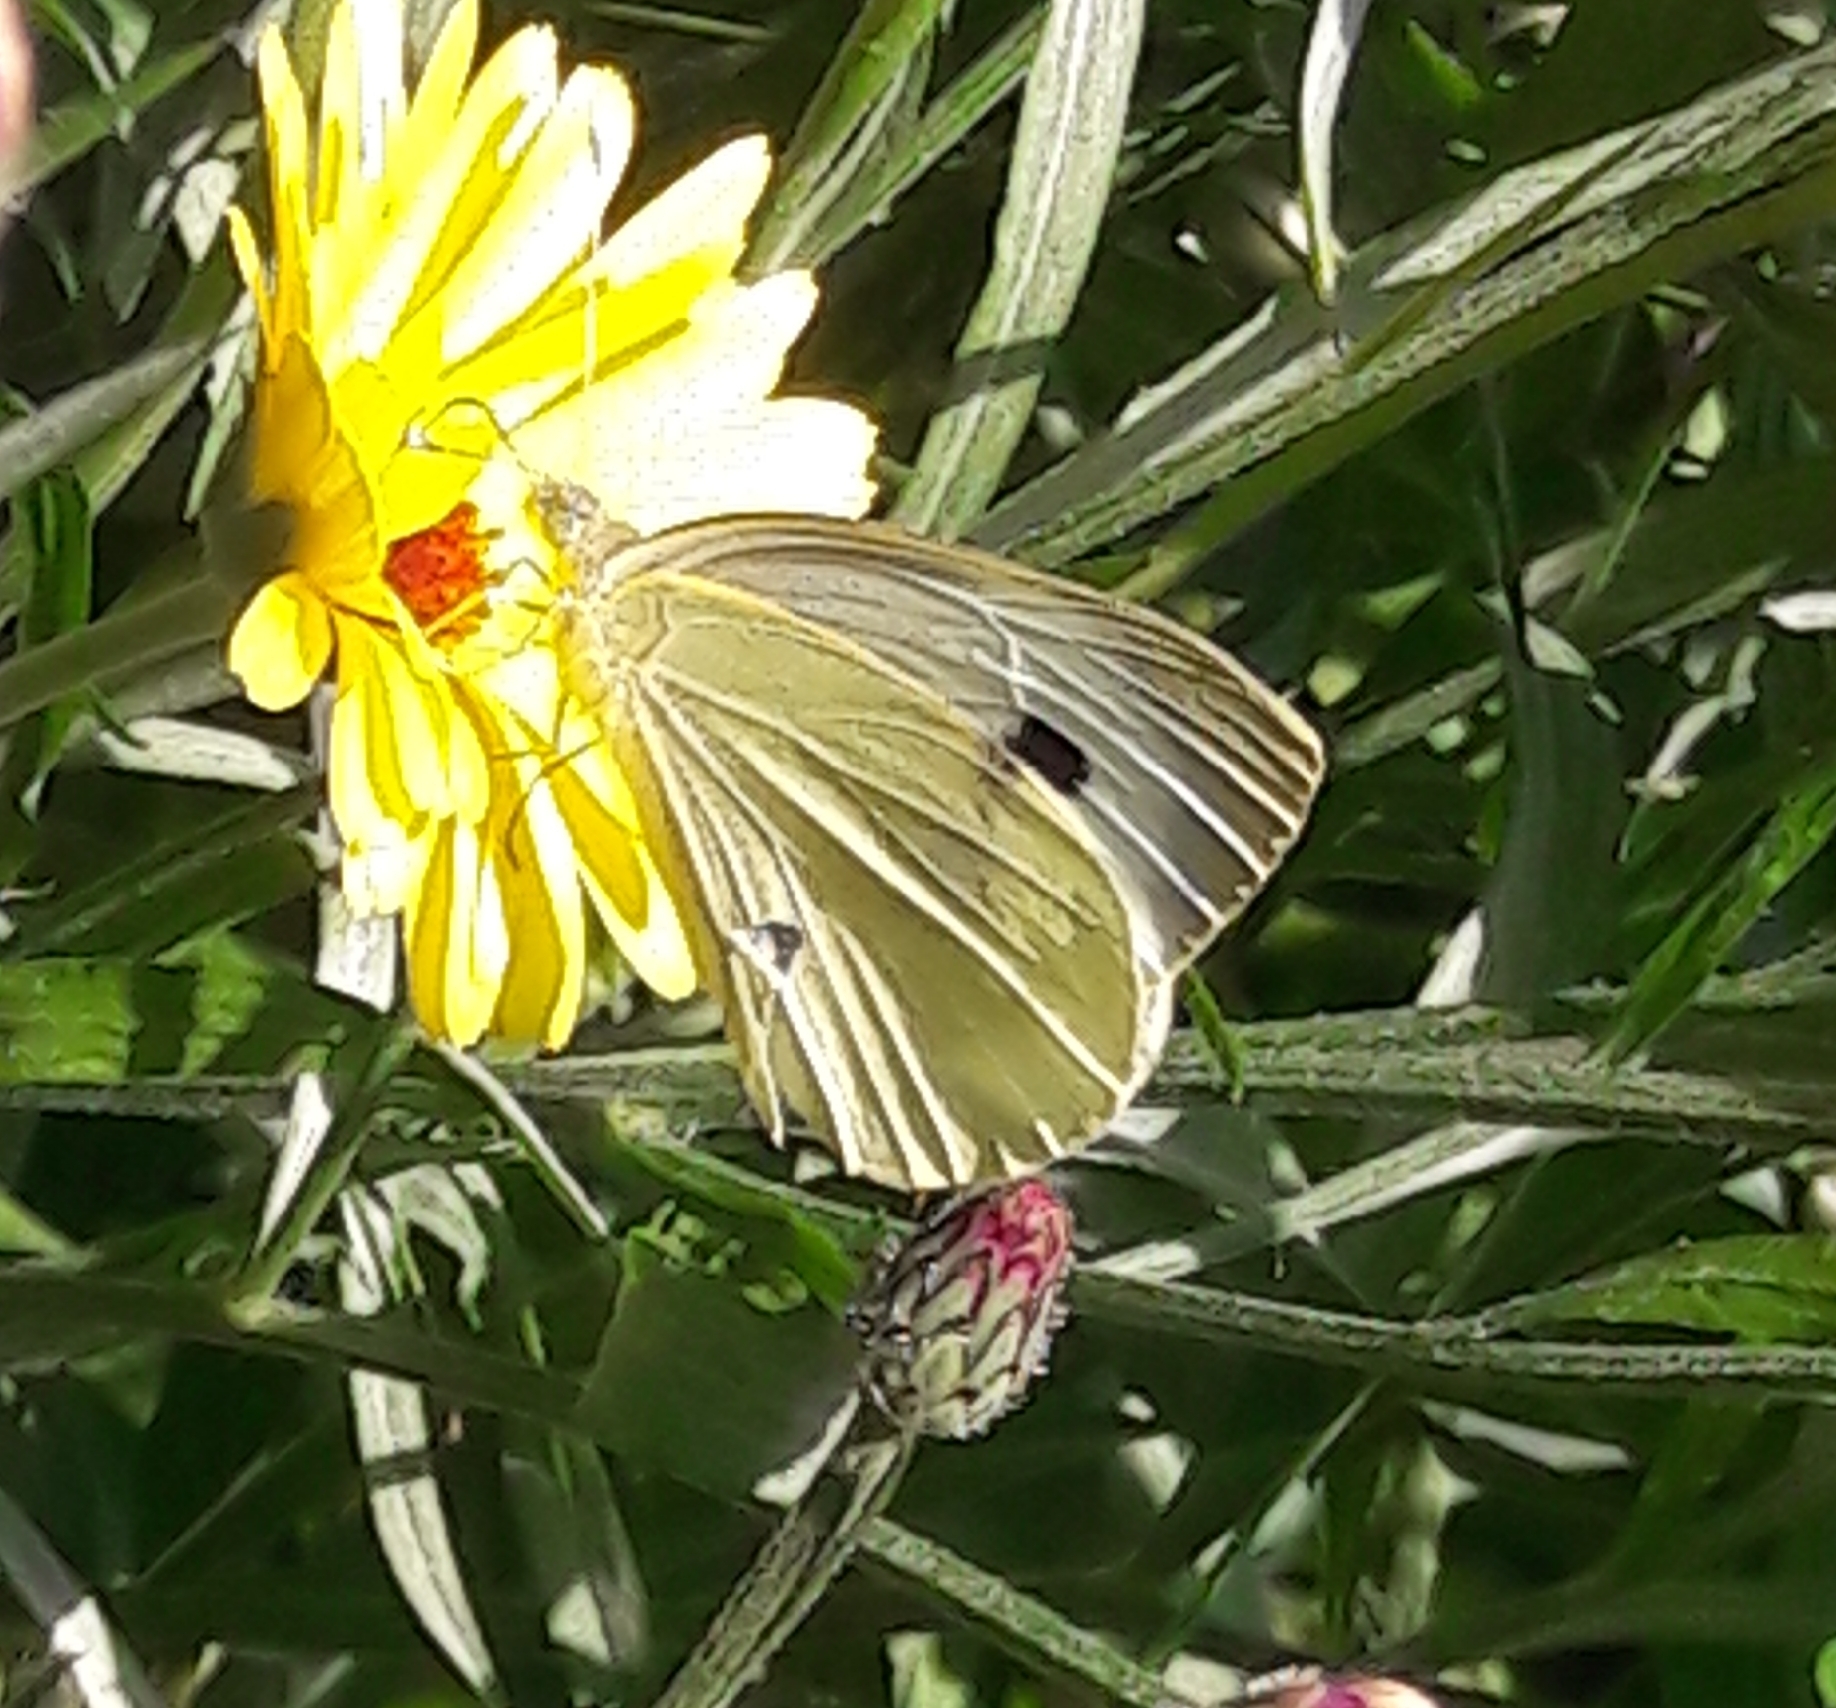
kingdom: Animalia
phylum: Arthropoda
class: Insecta
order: Lepidoptera
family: Pieridae
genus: Pieris
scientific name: Pieris brassicae
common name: Large white
